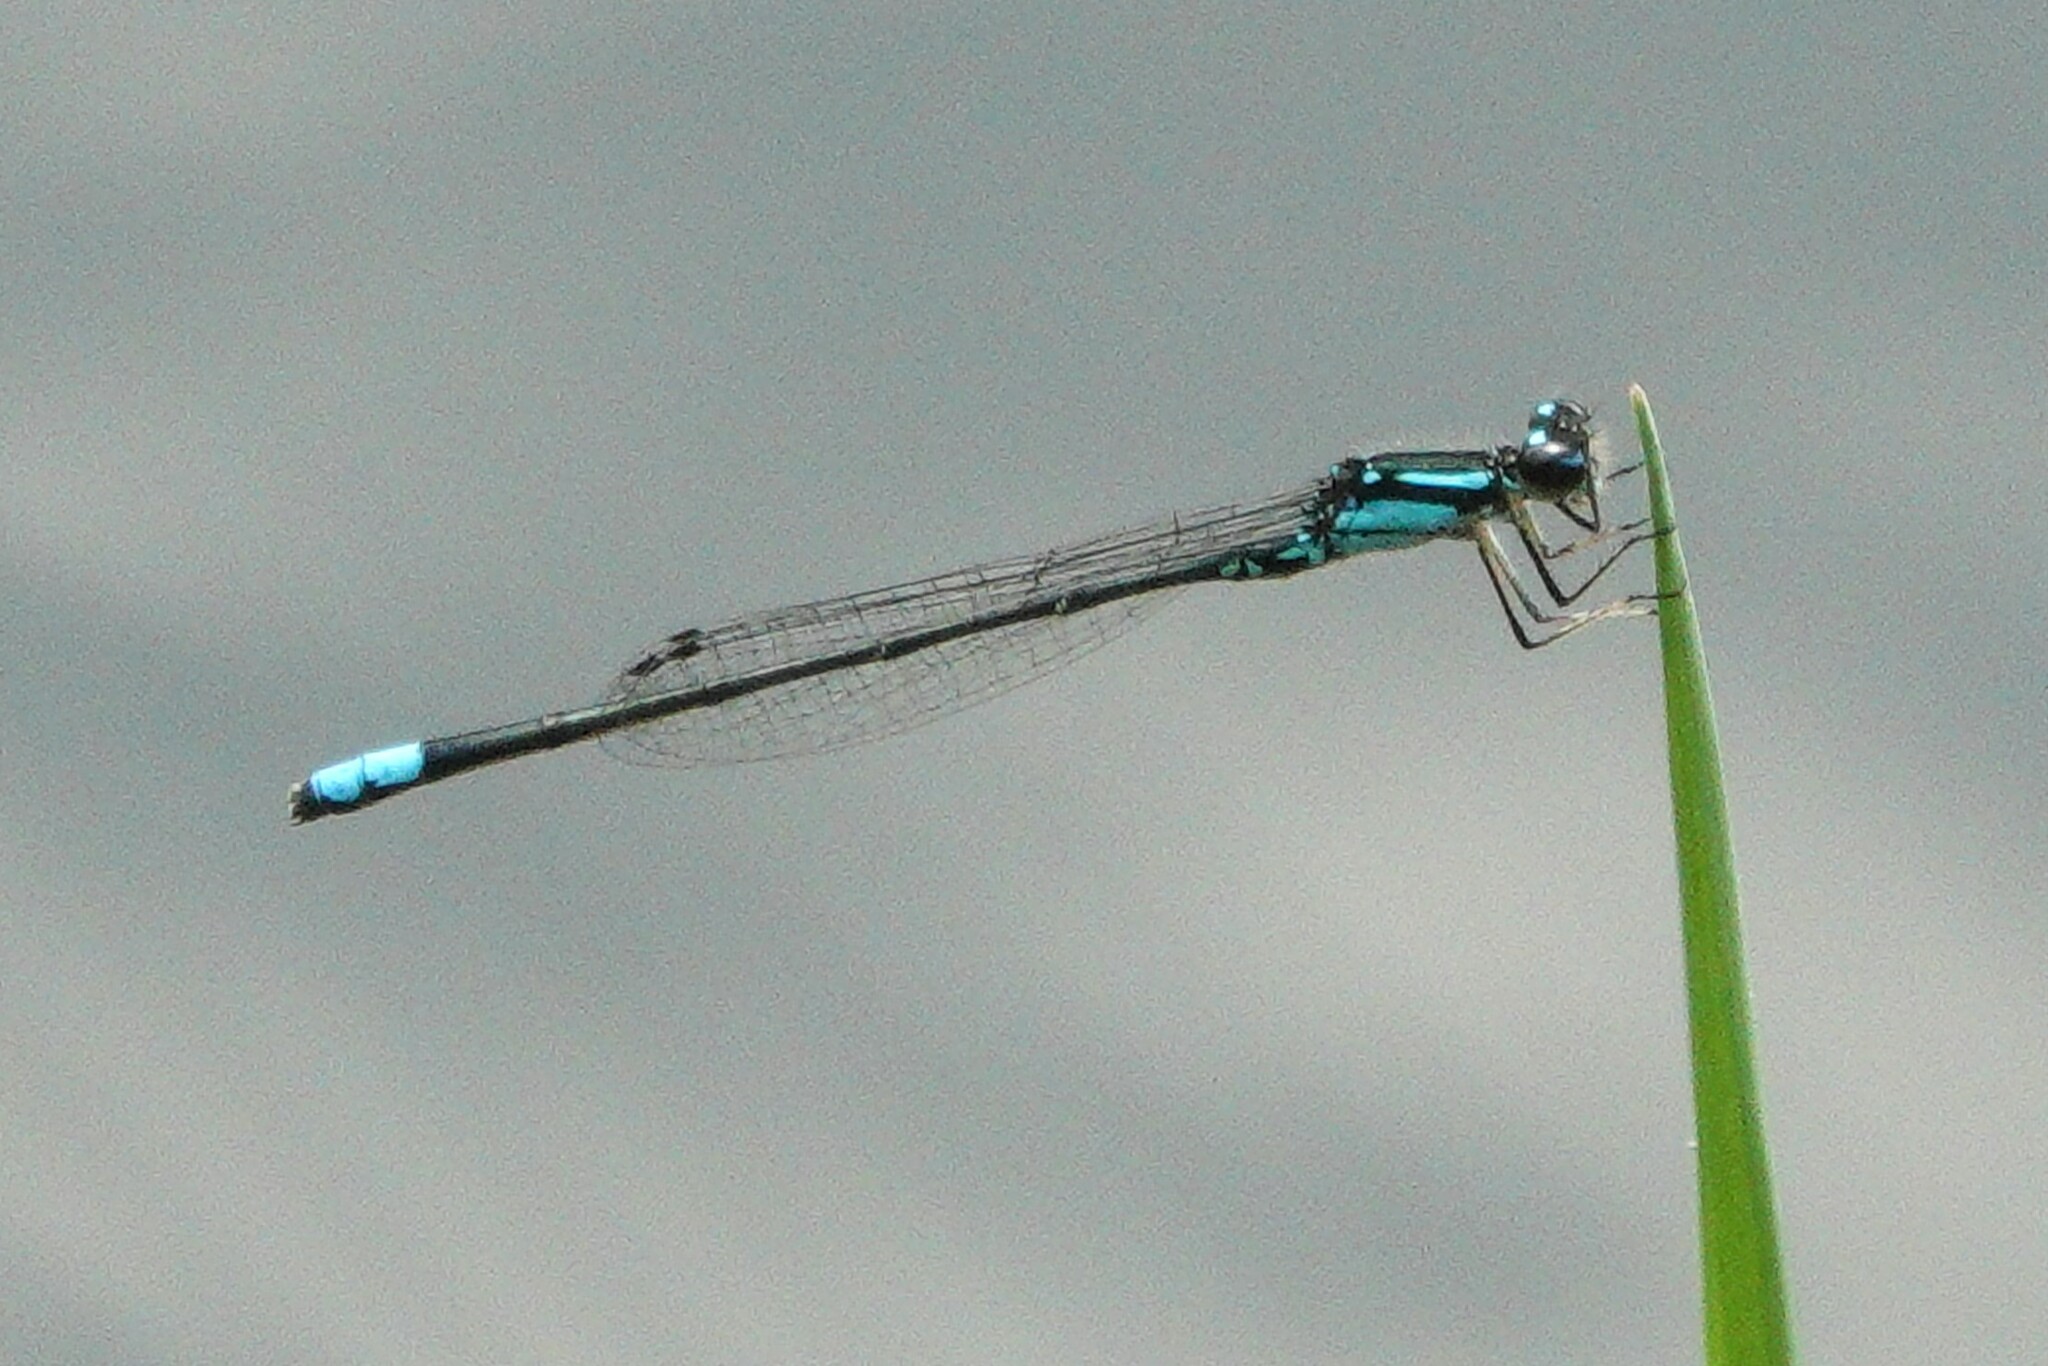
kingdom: Animalia
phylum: Arthropoda
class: Insecta
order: Odonata
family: Coenagrionidae
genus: Enallagma
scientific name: Enallagma geminatum
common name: Skimming bluet
